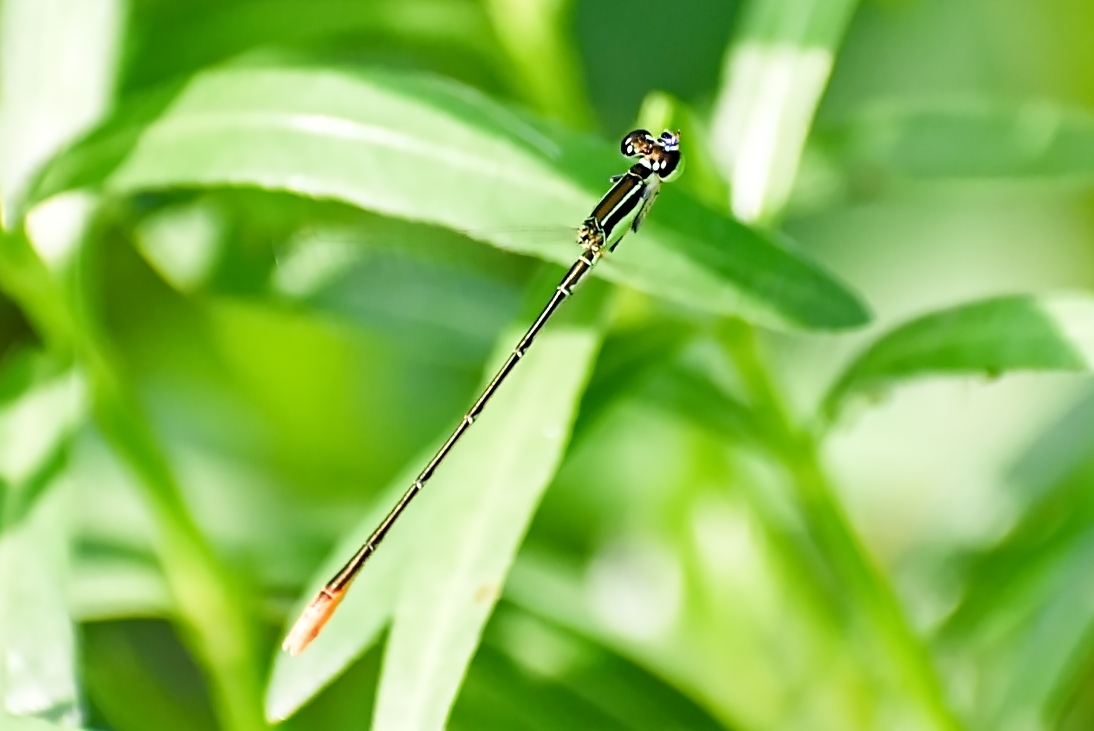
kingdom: Animalia
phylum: Arthropoda
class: Insecta
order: Odonata
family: Coenagrionidae
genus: Agriocnemis
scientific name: Agriocnemis pygmaea
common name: Pygmy wisp
